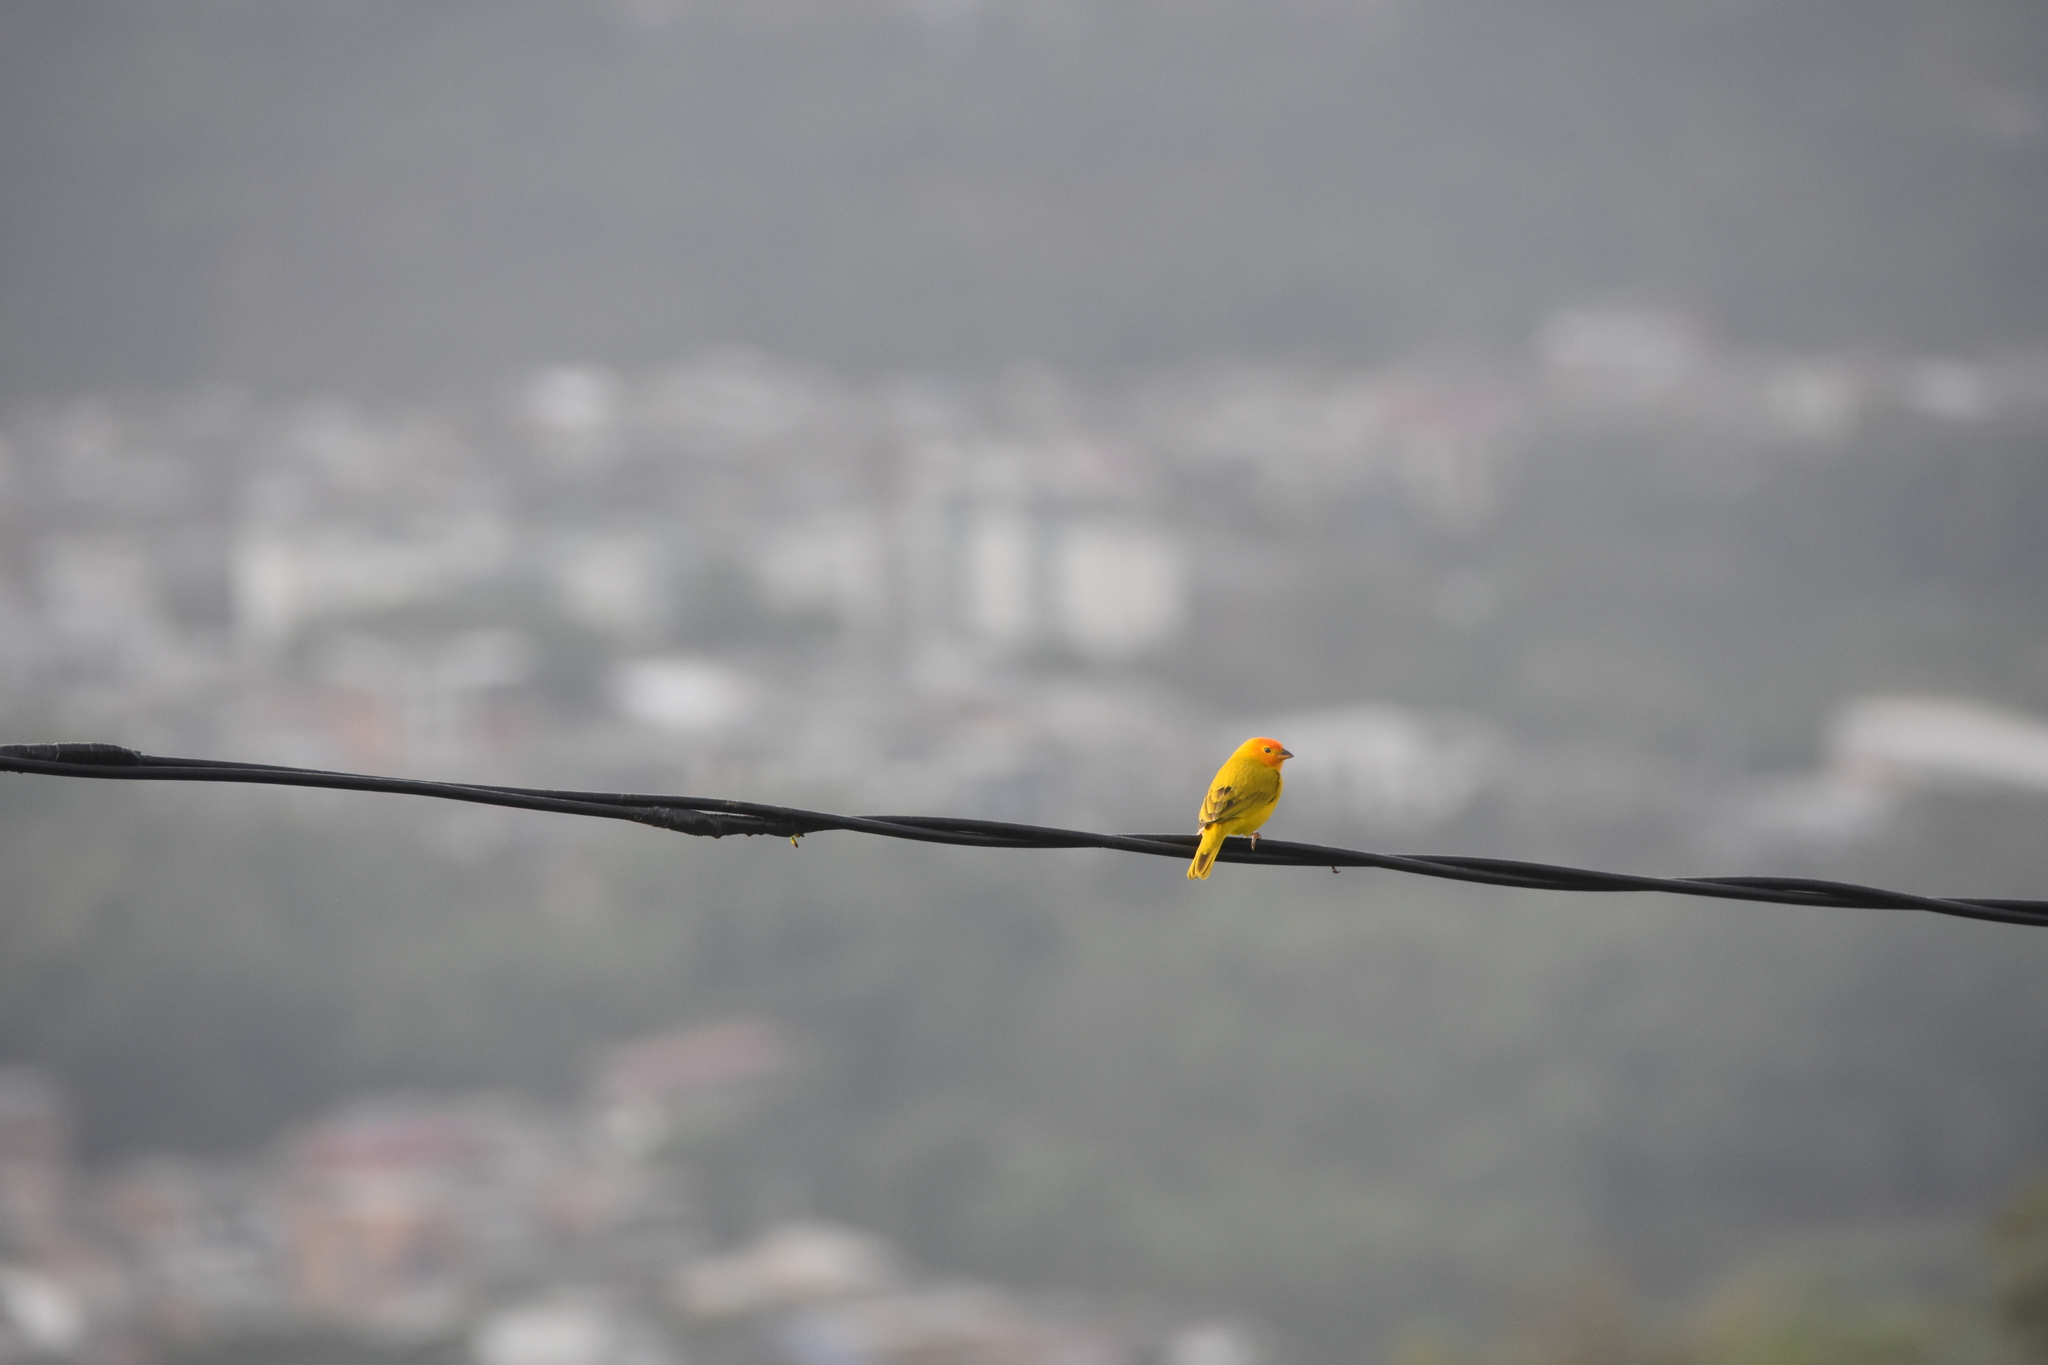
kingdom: Animalia
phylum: Chordata
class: Aves
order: Passeriformes
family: Thraupidae
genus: Sicalis
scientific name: Sicalis flaveola
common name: Saffron finch
